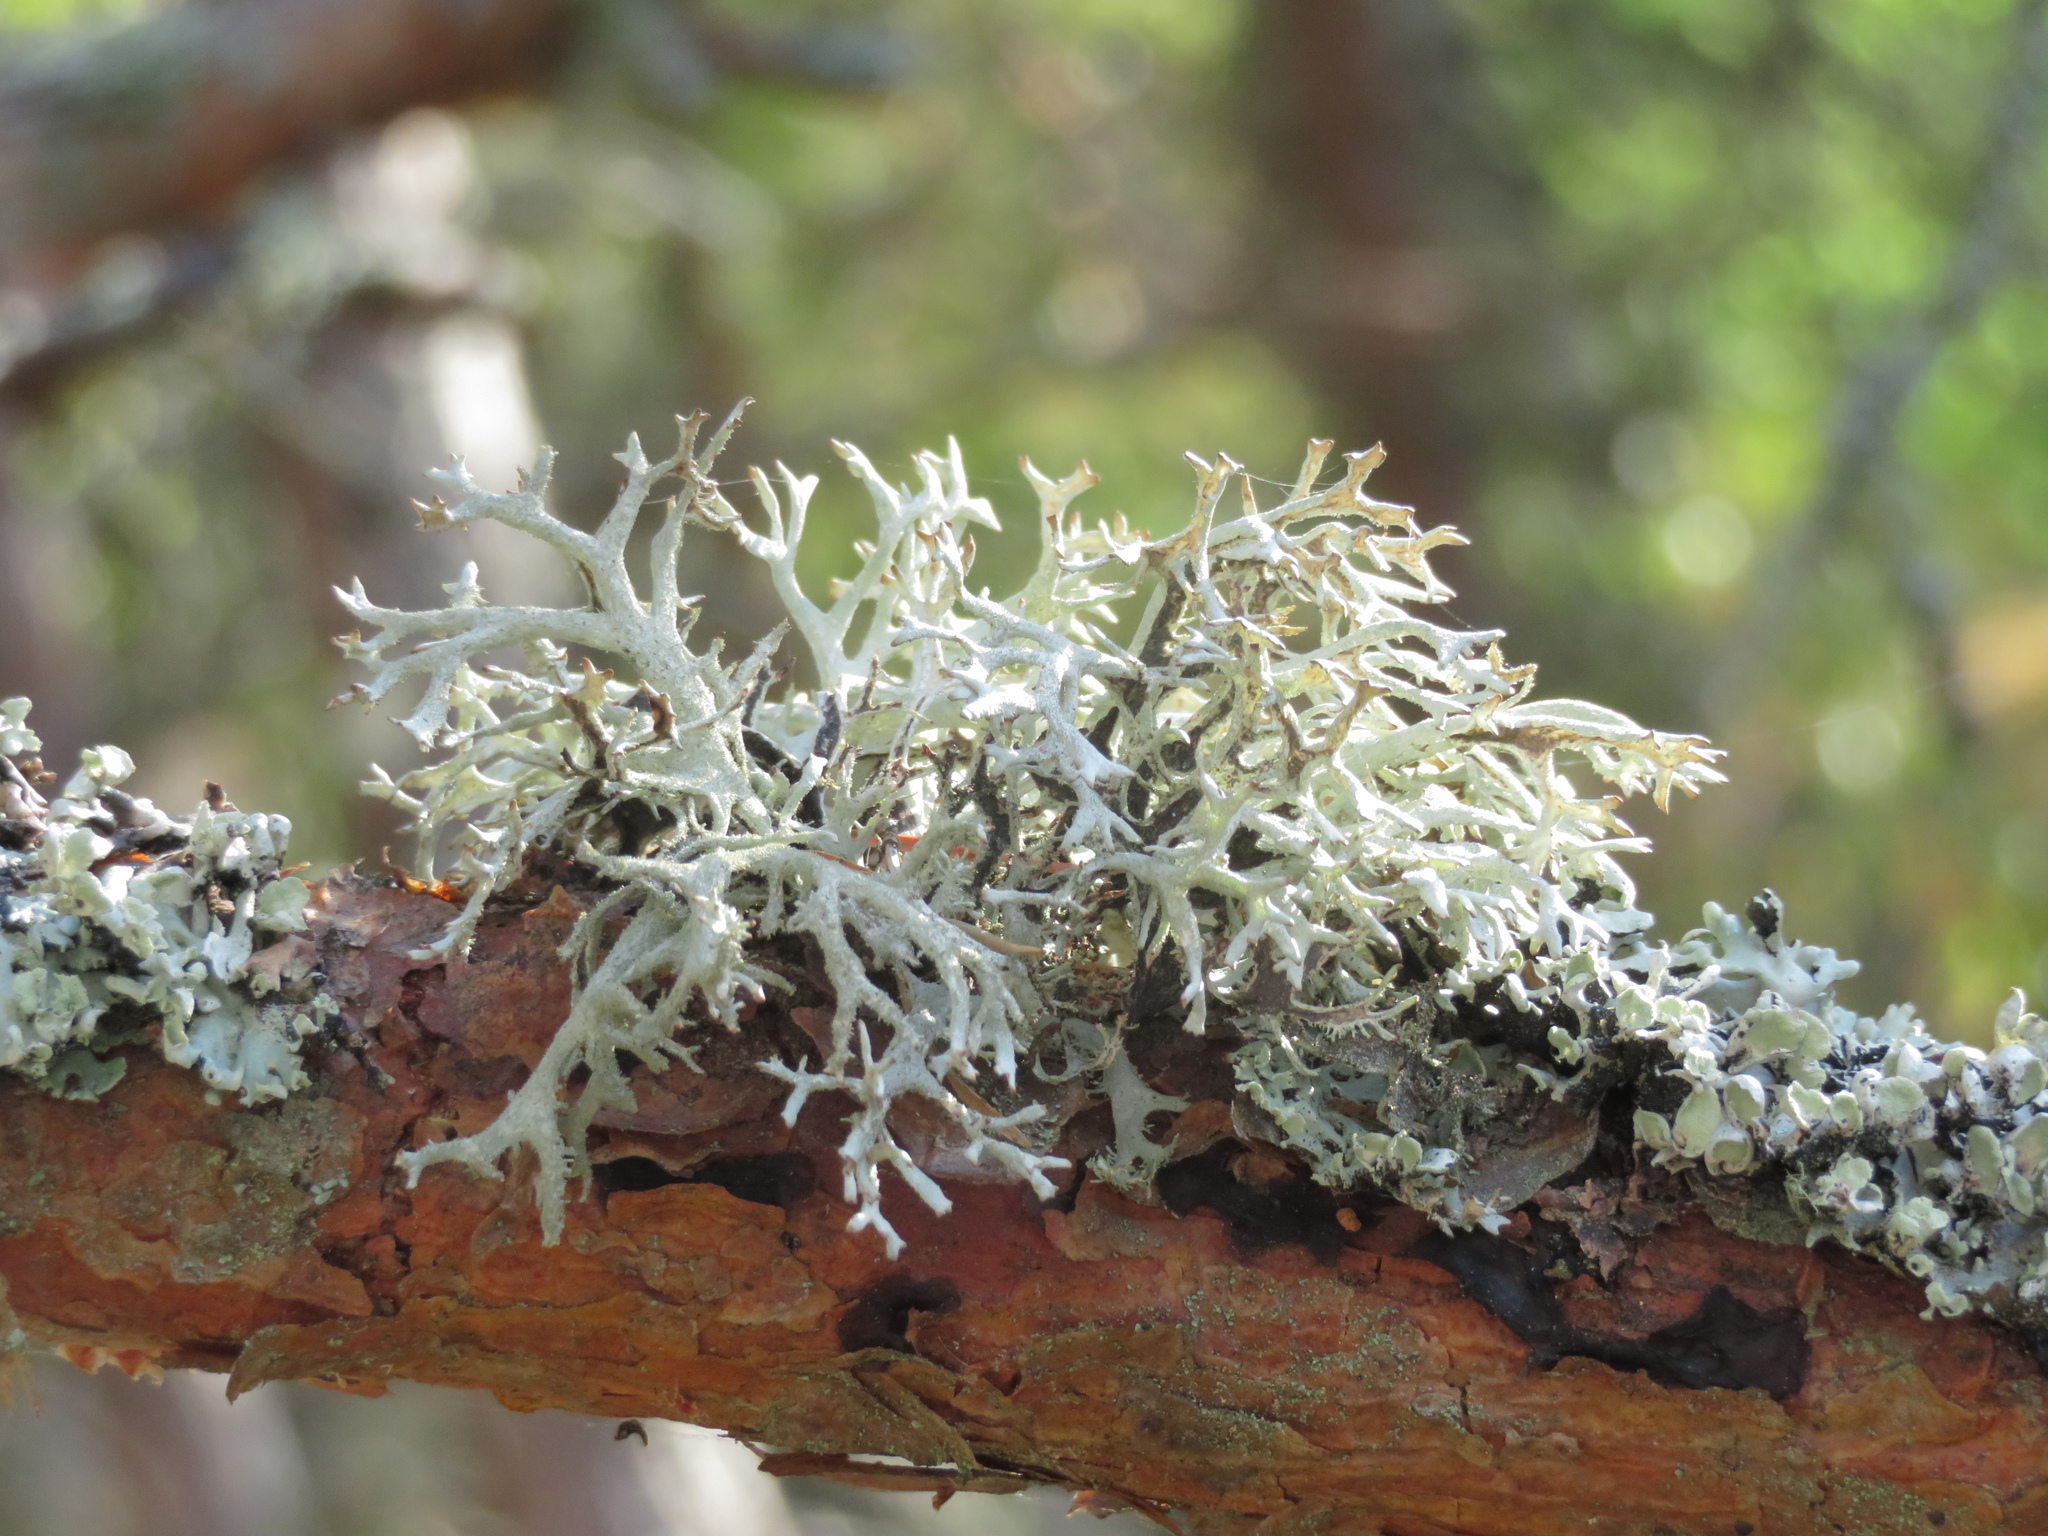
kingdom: Fungi
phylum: Ascomycota
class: Lecanoromycetes
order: Lecanorales
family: Parmeliaceae
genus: Pseudevernia
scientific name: Pseudevernia furfuracea
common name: Tree moss
